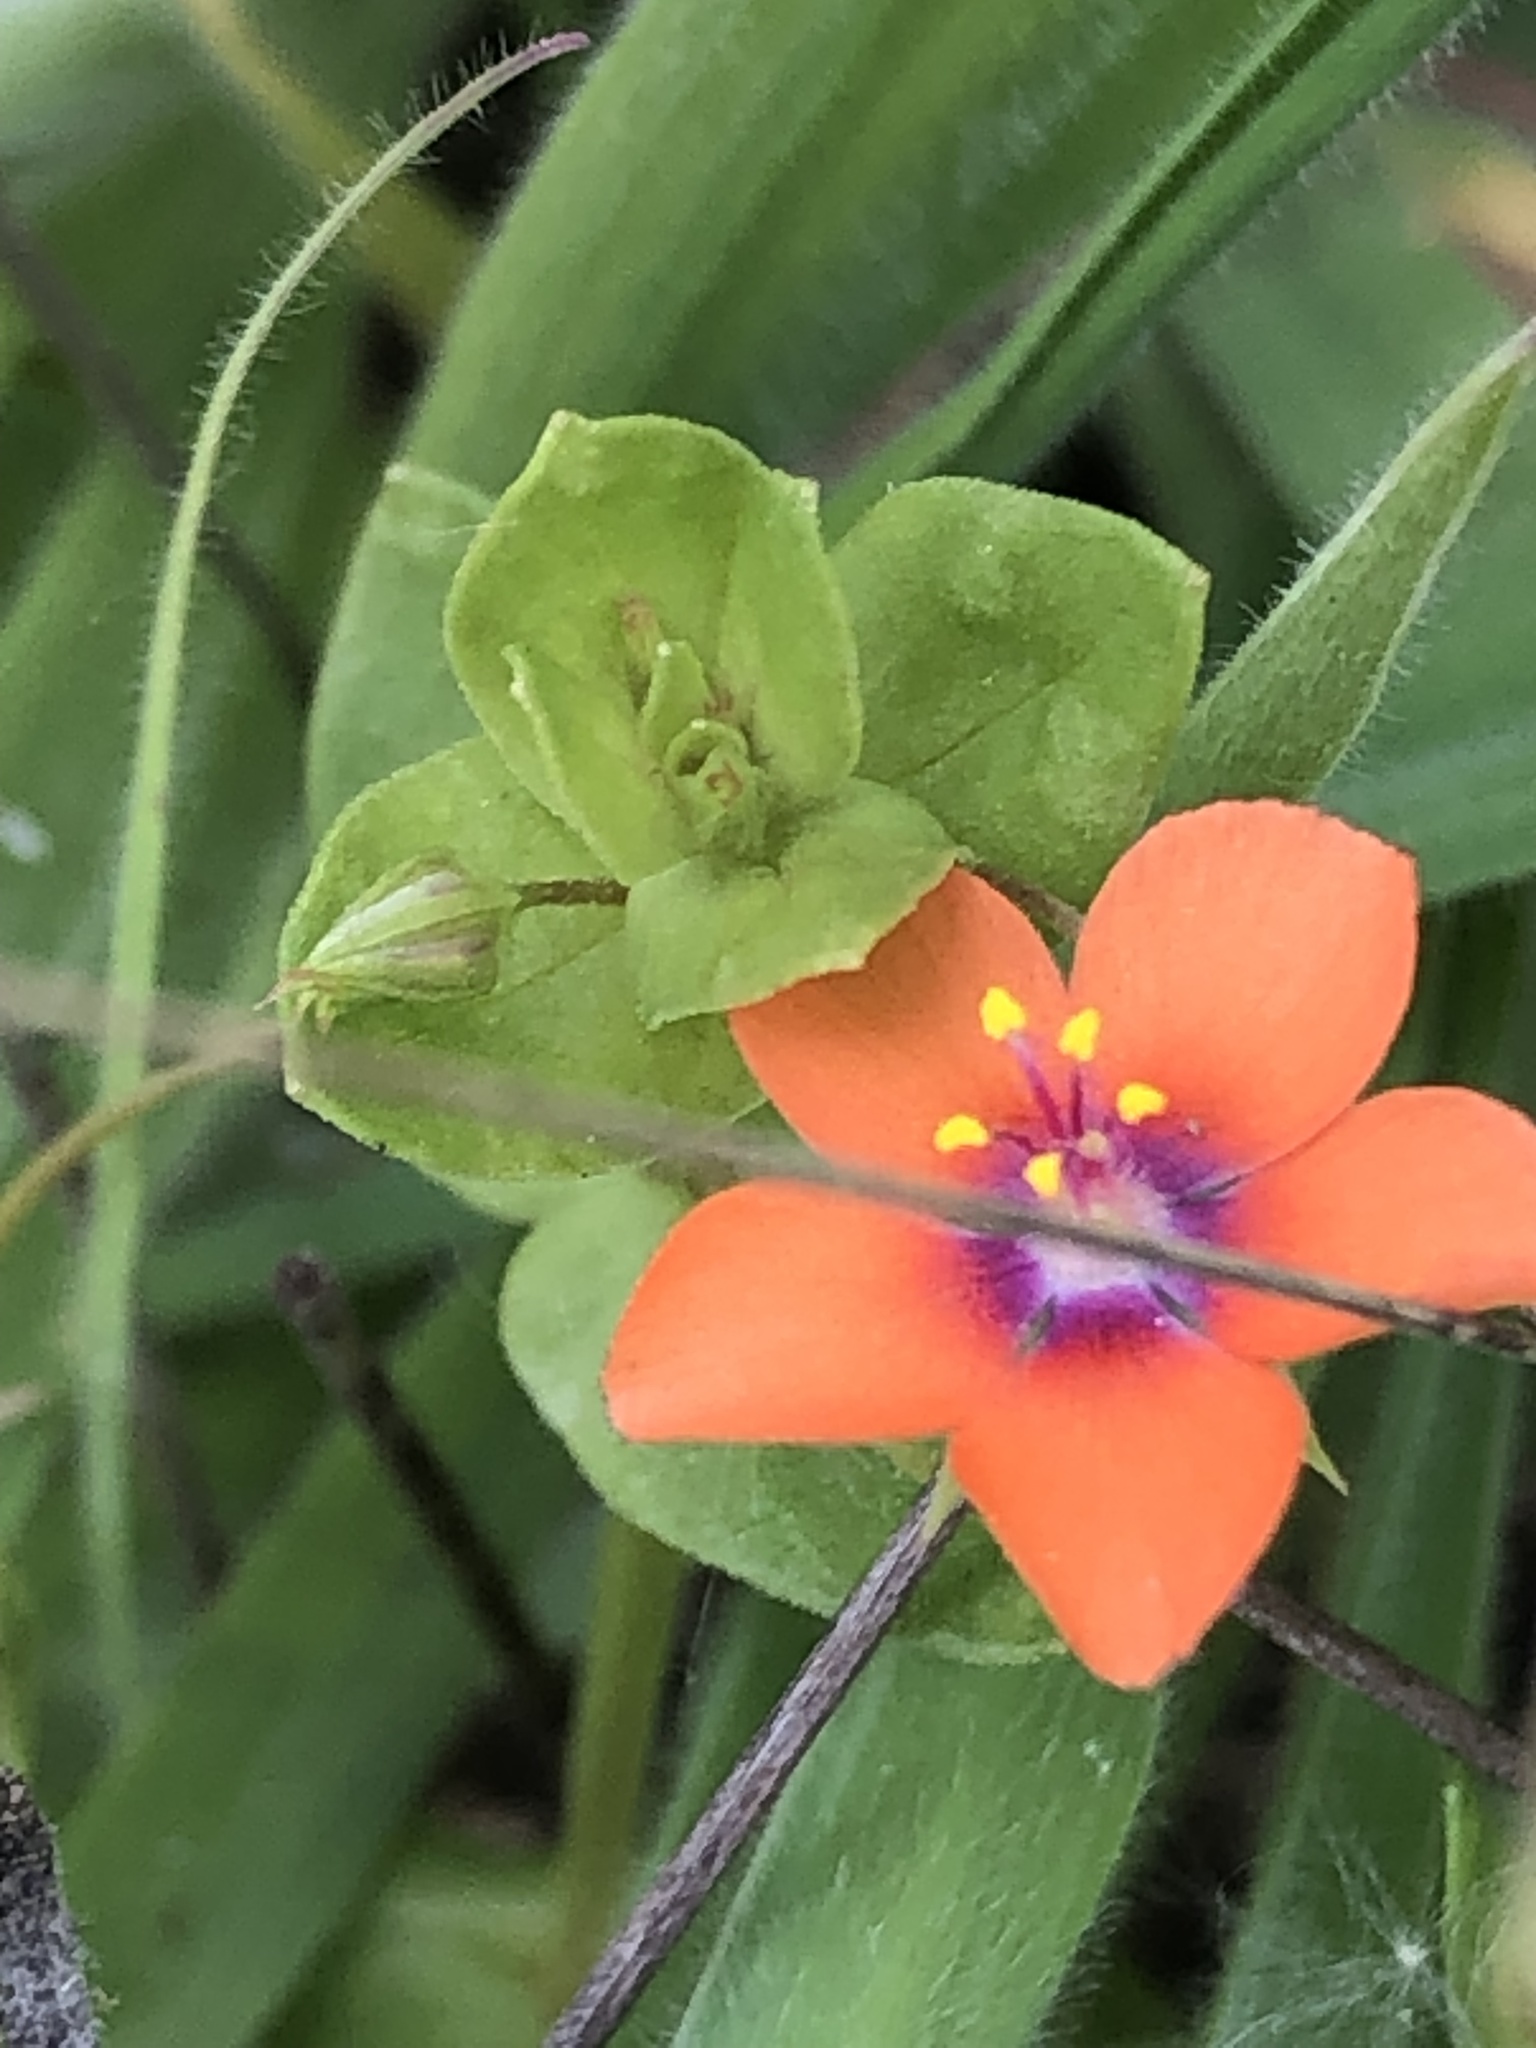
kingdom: Plantae
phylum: Tracheophyta
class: Magnoliopsida
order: Ericales
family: Primulaceae
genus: Lysimachia
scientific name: Lysimachia arvensis
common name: Scarlet pimpernel
